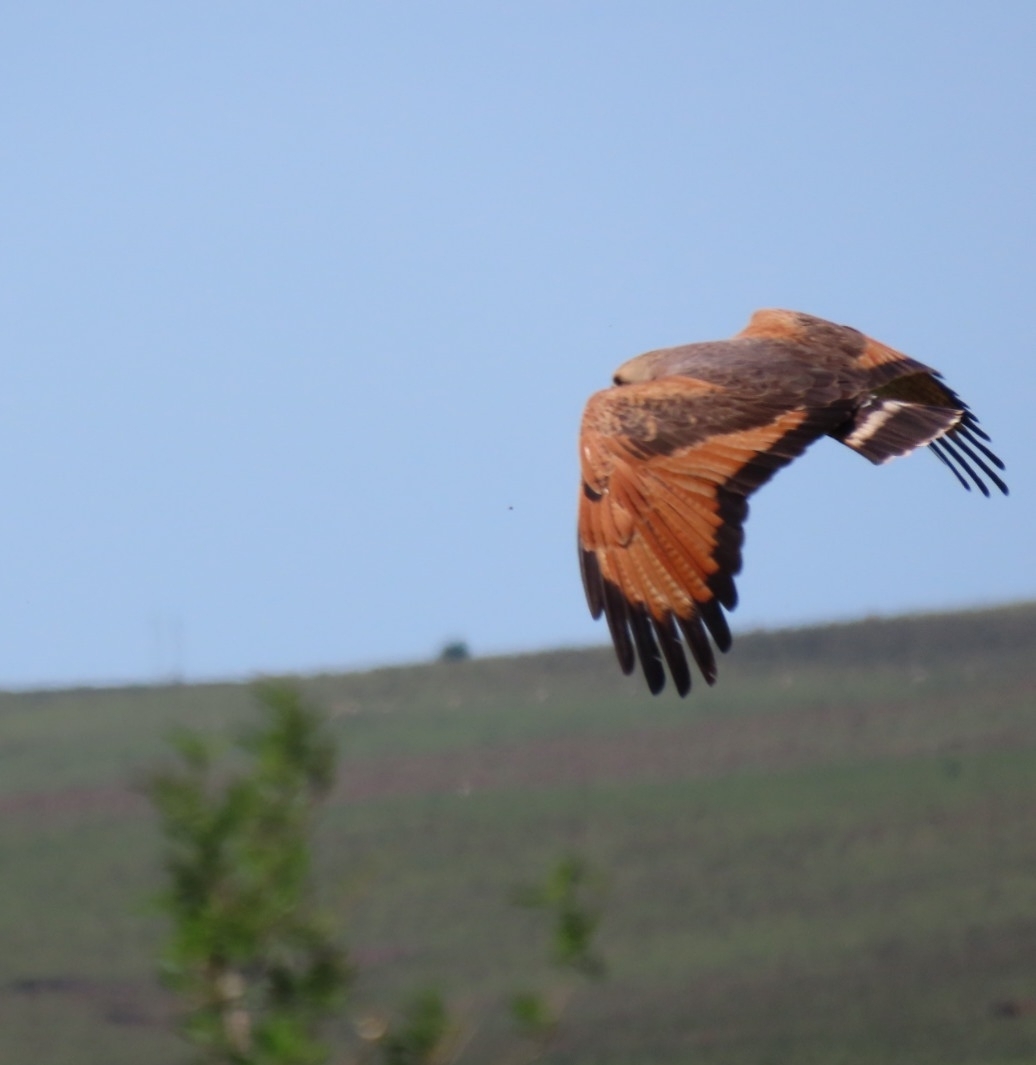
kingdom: Animalia
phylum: Chordata
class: Aves
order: Accipitriformes
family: Accipitridae
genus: Buteogallus
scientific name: Buteogallus meridionalis
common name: Savanna hawk
